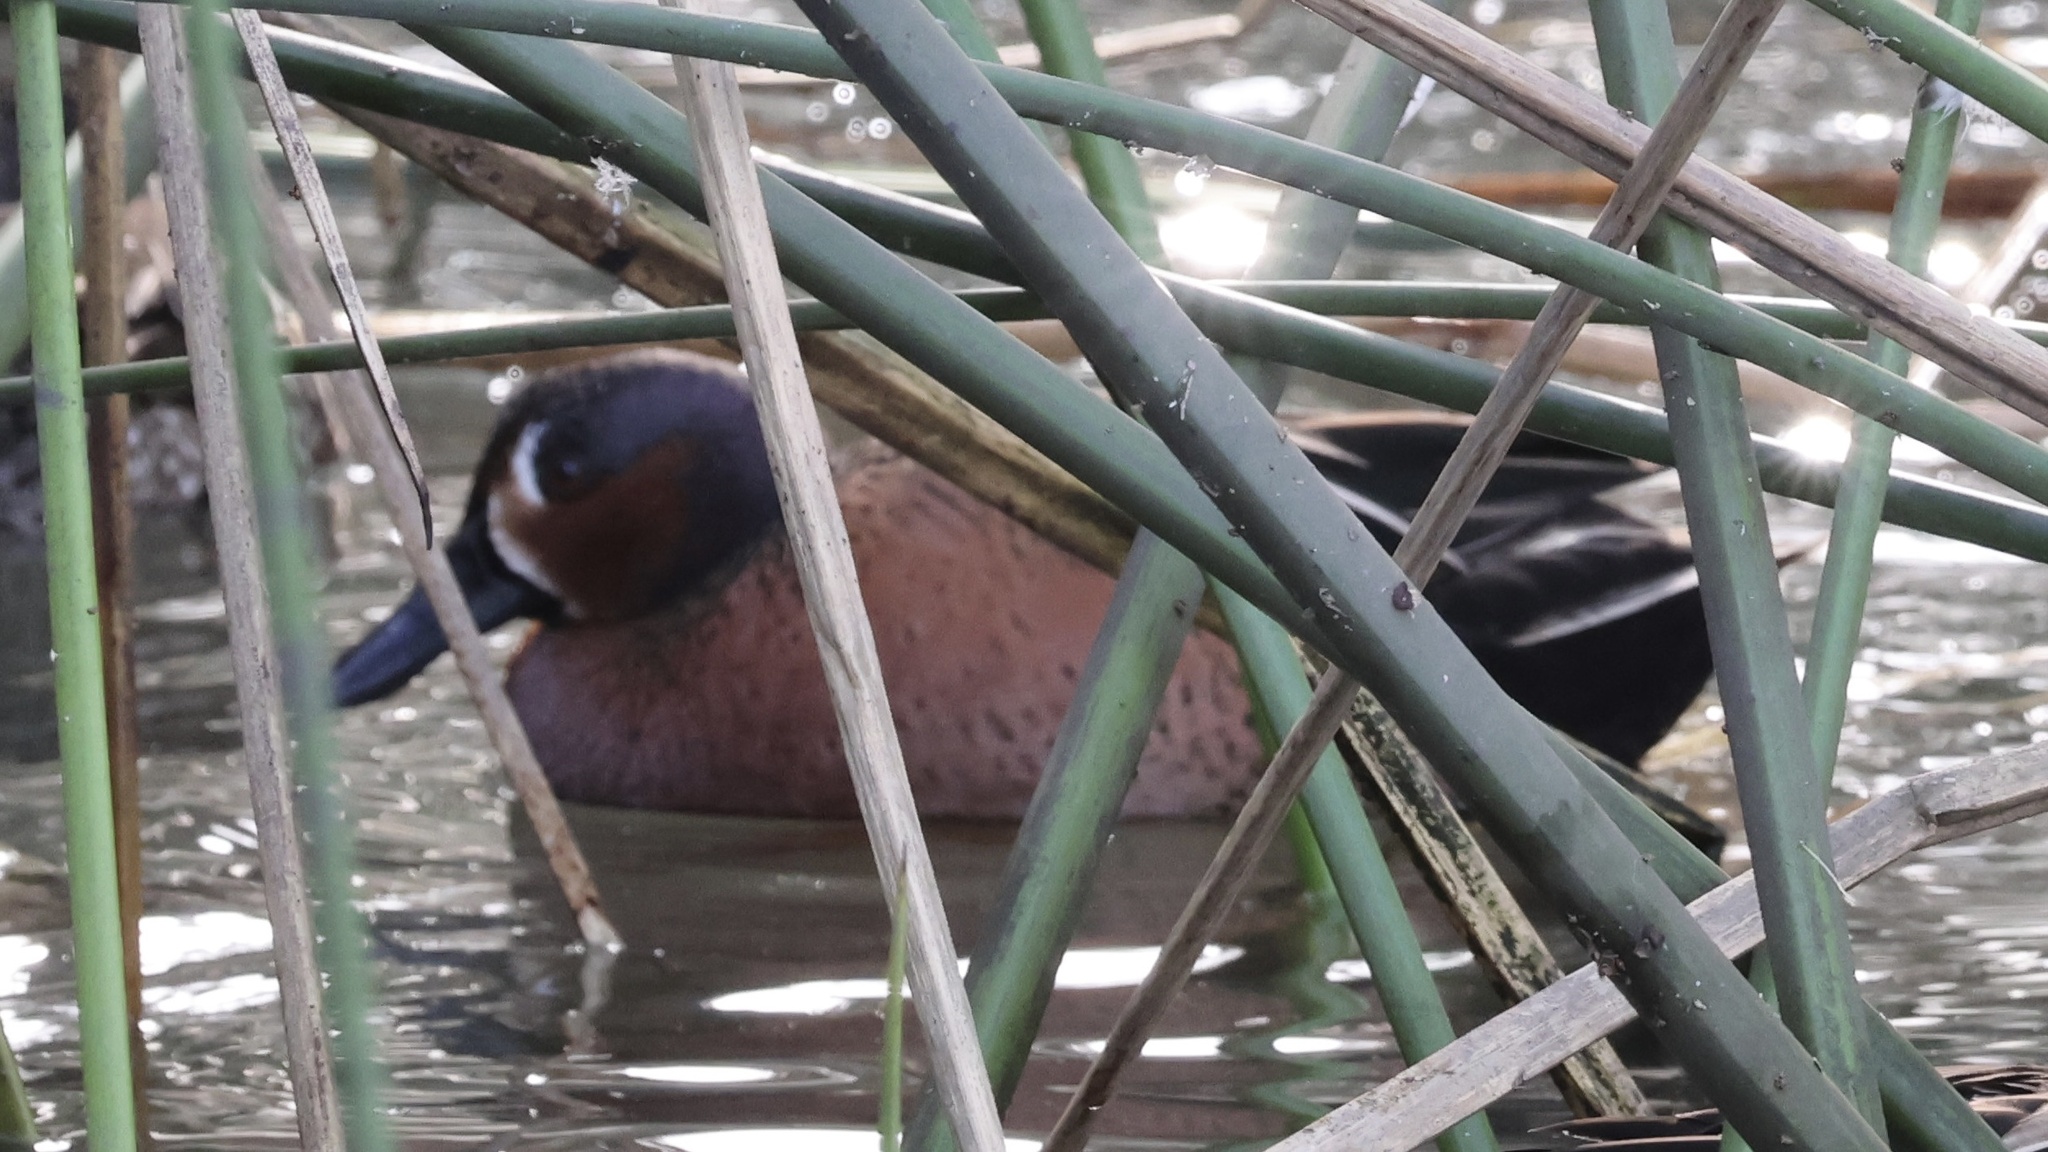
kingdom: Animalia
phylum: Chordata
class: Aves
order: Anseriformes
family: Anatidae
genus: Spatula
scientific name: Spatula
